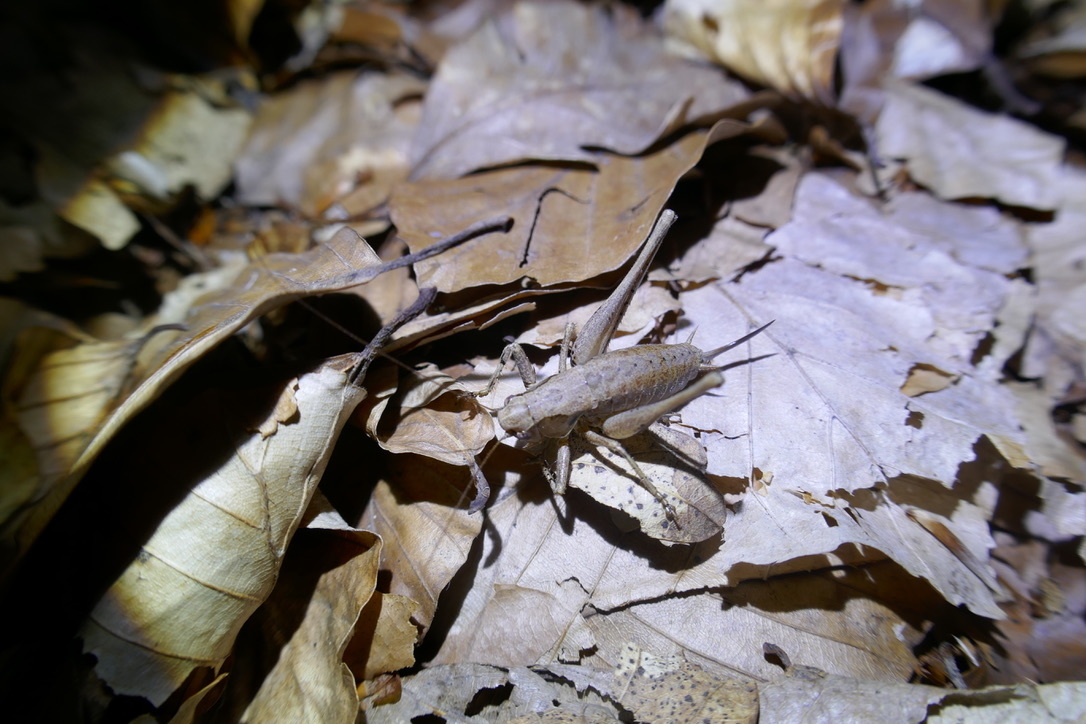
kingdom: Animalia
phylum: Arthropoda
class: Insecta
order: Orthoptera
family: Tettigoniidae
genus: Pholidoptera
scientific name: Pholidoptera griseoaptera
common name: Dark bush-cricket
